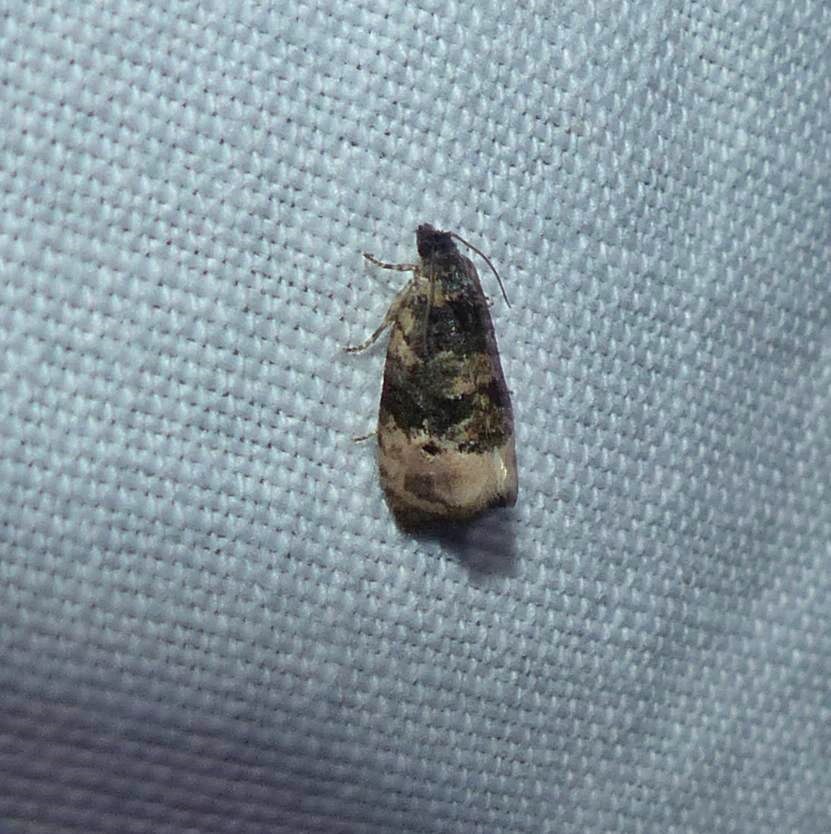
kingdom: Animalia
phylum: Arthropoda
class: Insecta
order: Lepidoptera
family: Tortricidae
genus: Hedya
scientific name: Hedya separatana
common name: Pink-washed leafroller moth
